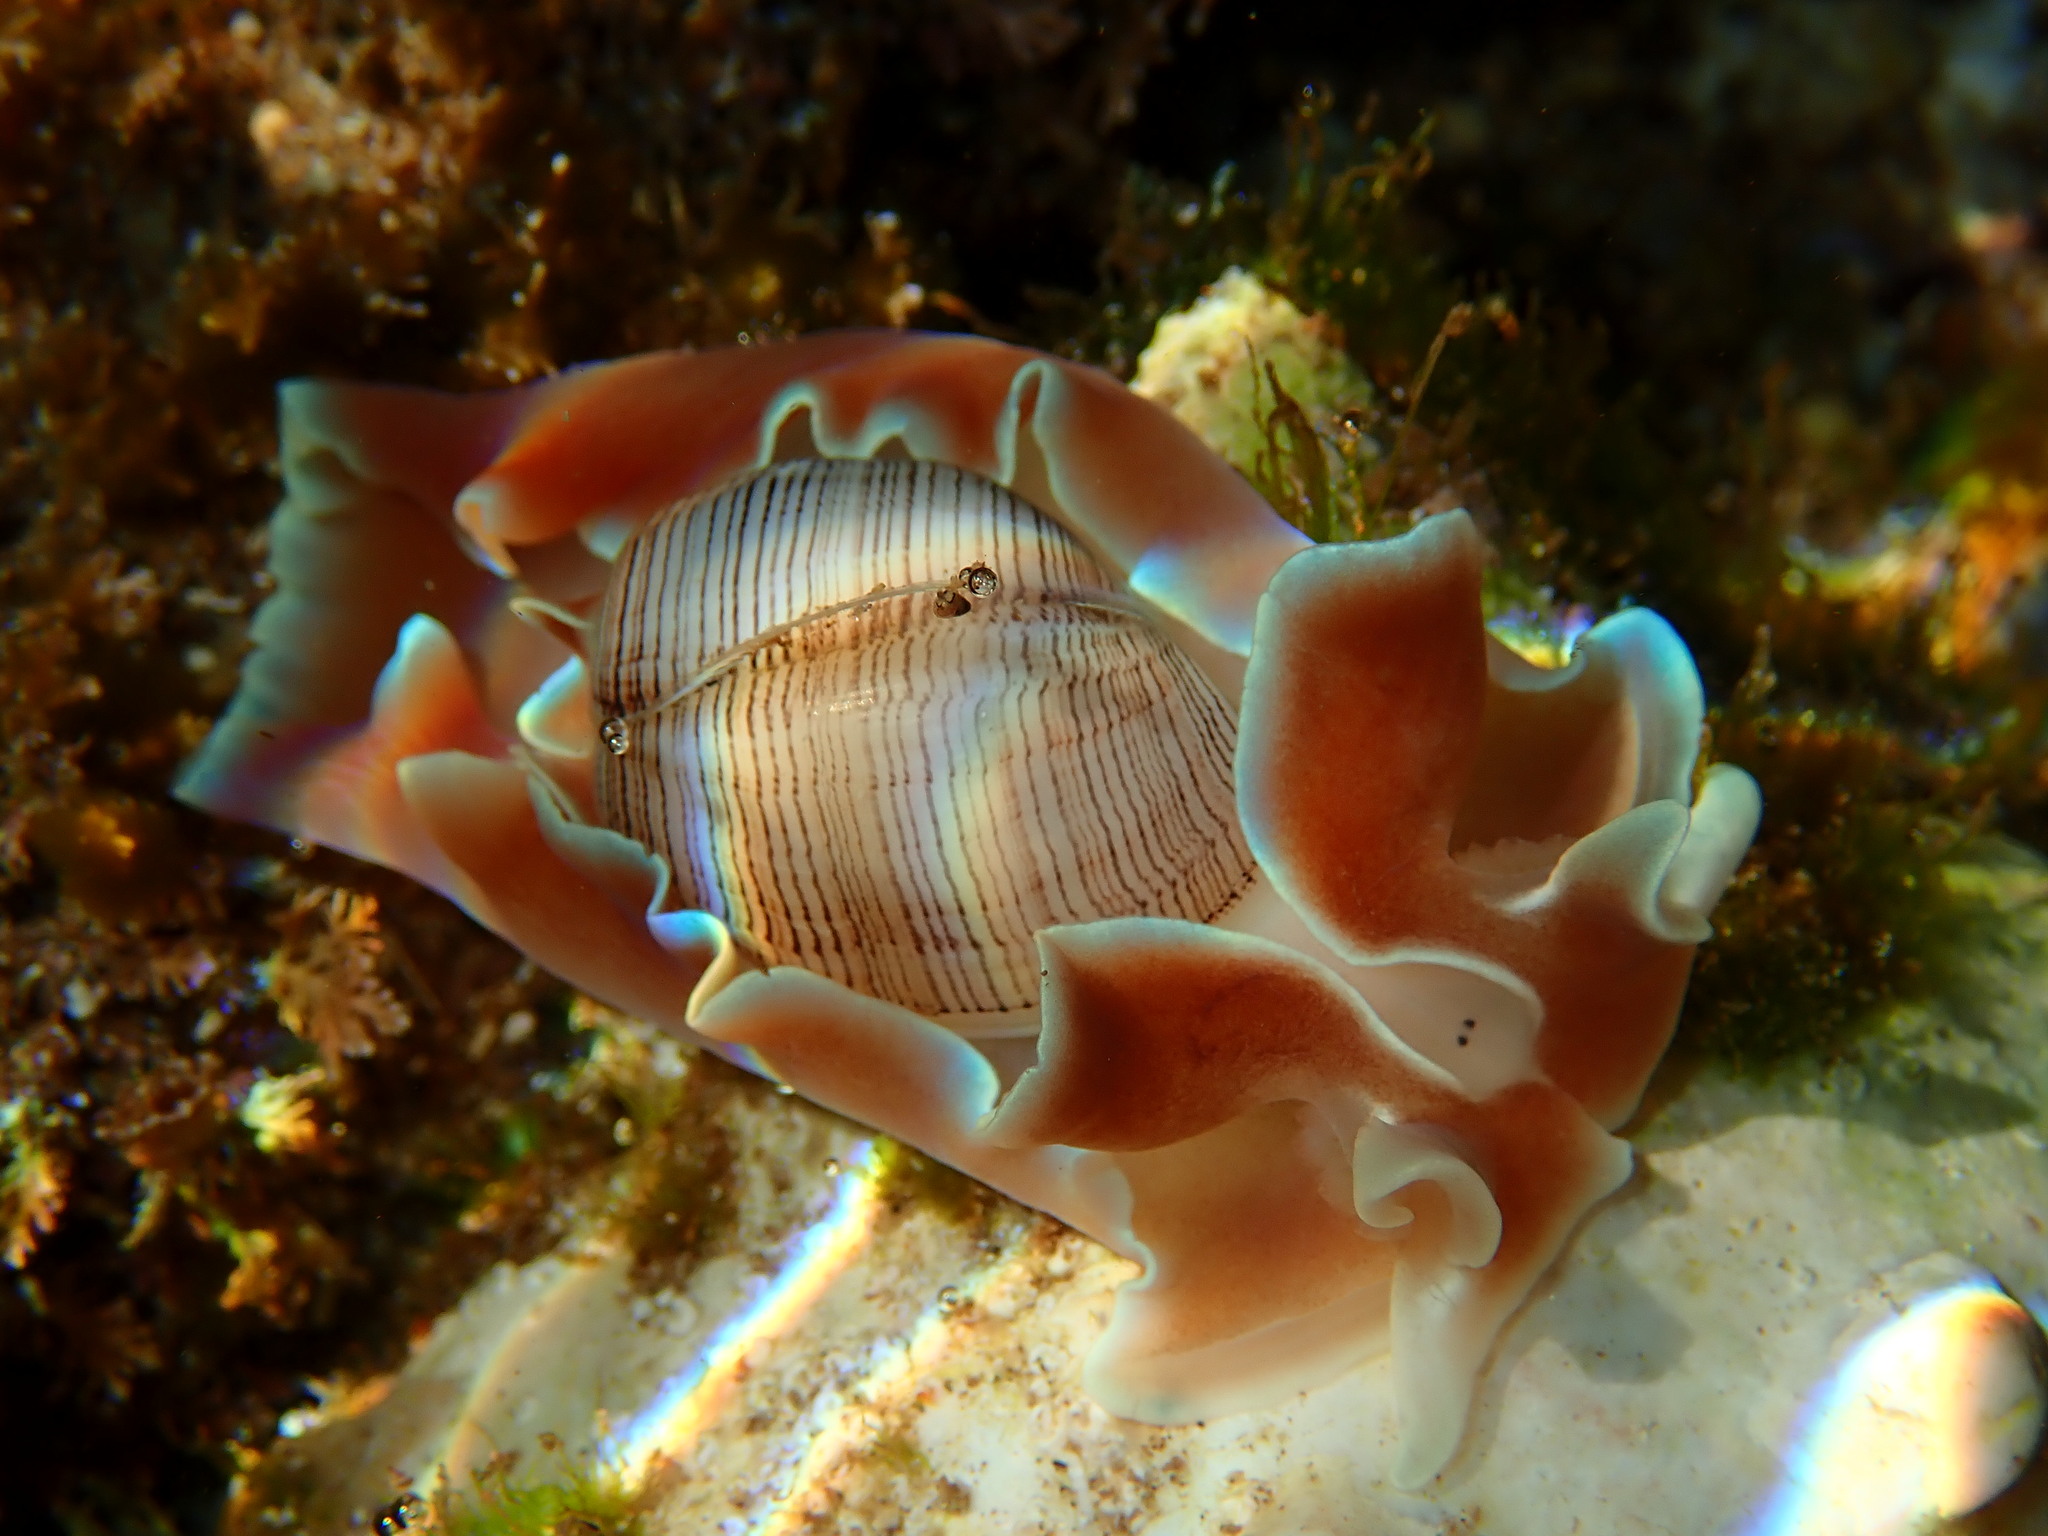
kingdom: Animalia
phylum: Mollusca
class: Gastropoda
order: Cephalaspidea
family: Aplustridae
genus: Hydatina
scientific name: Hydatina physis
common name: Brown-line paperbubble
